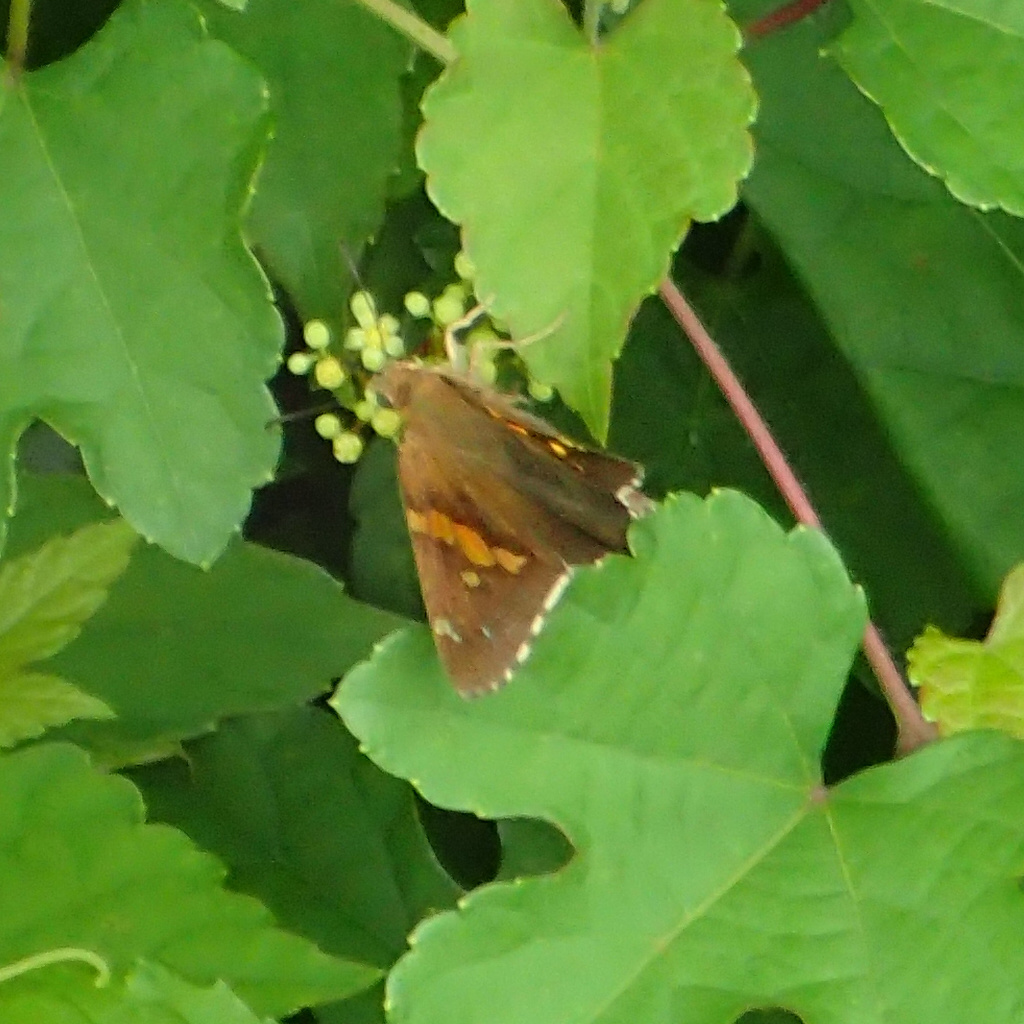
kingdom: Animalia
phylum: Arthropoda
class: Insecta
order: Lepidoptera
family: Hesperiidae
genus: Epargyreus
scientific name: Epargyreus clarus
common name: Silver-spotted skipper
